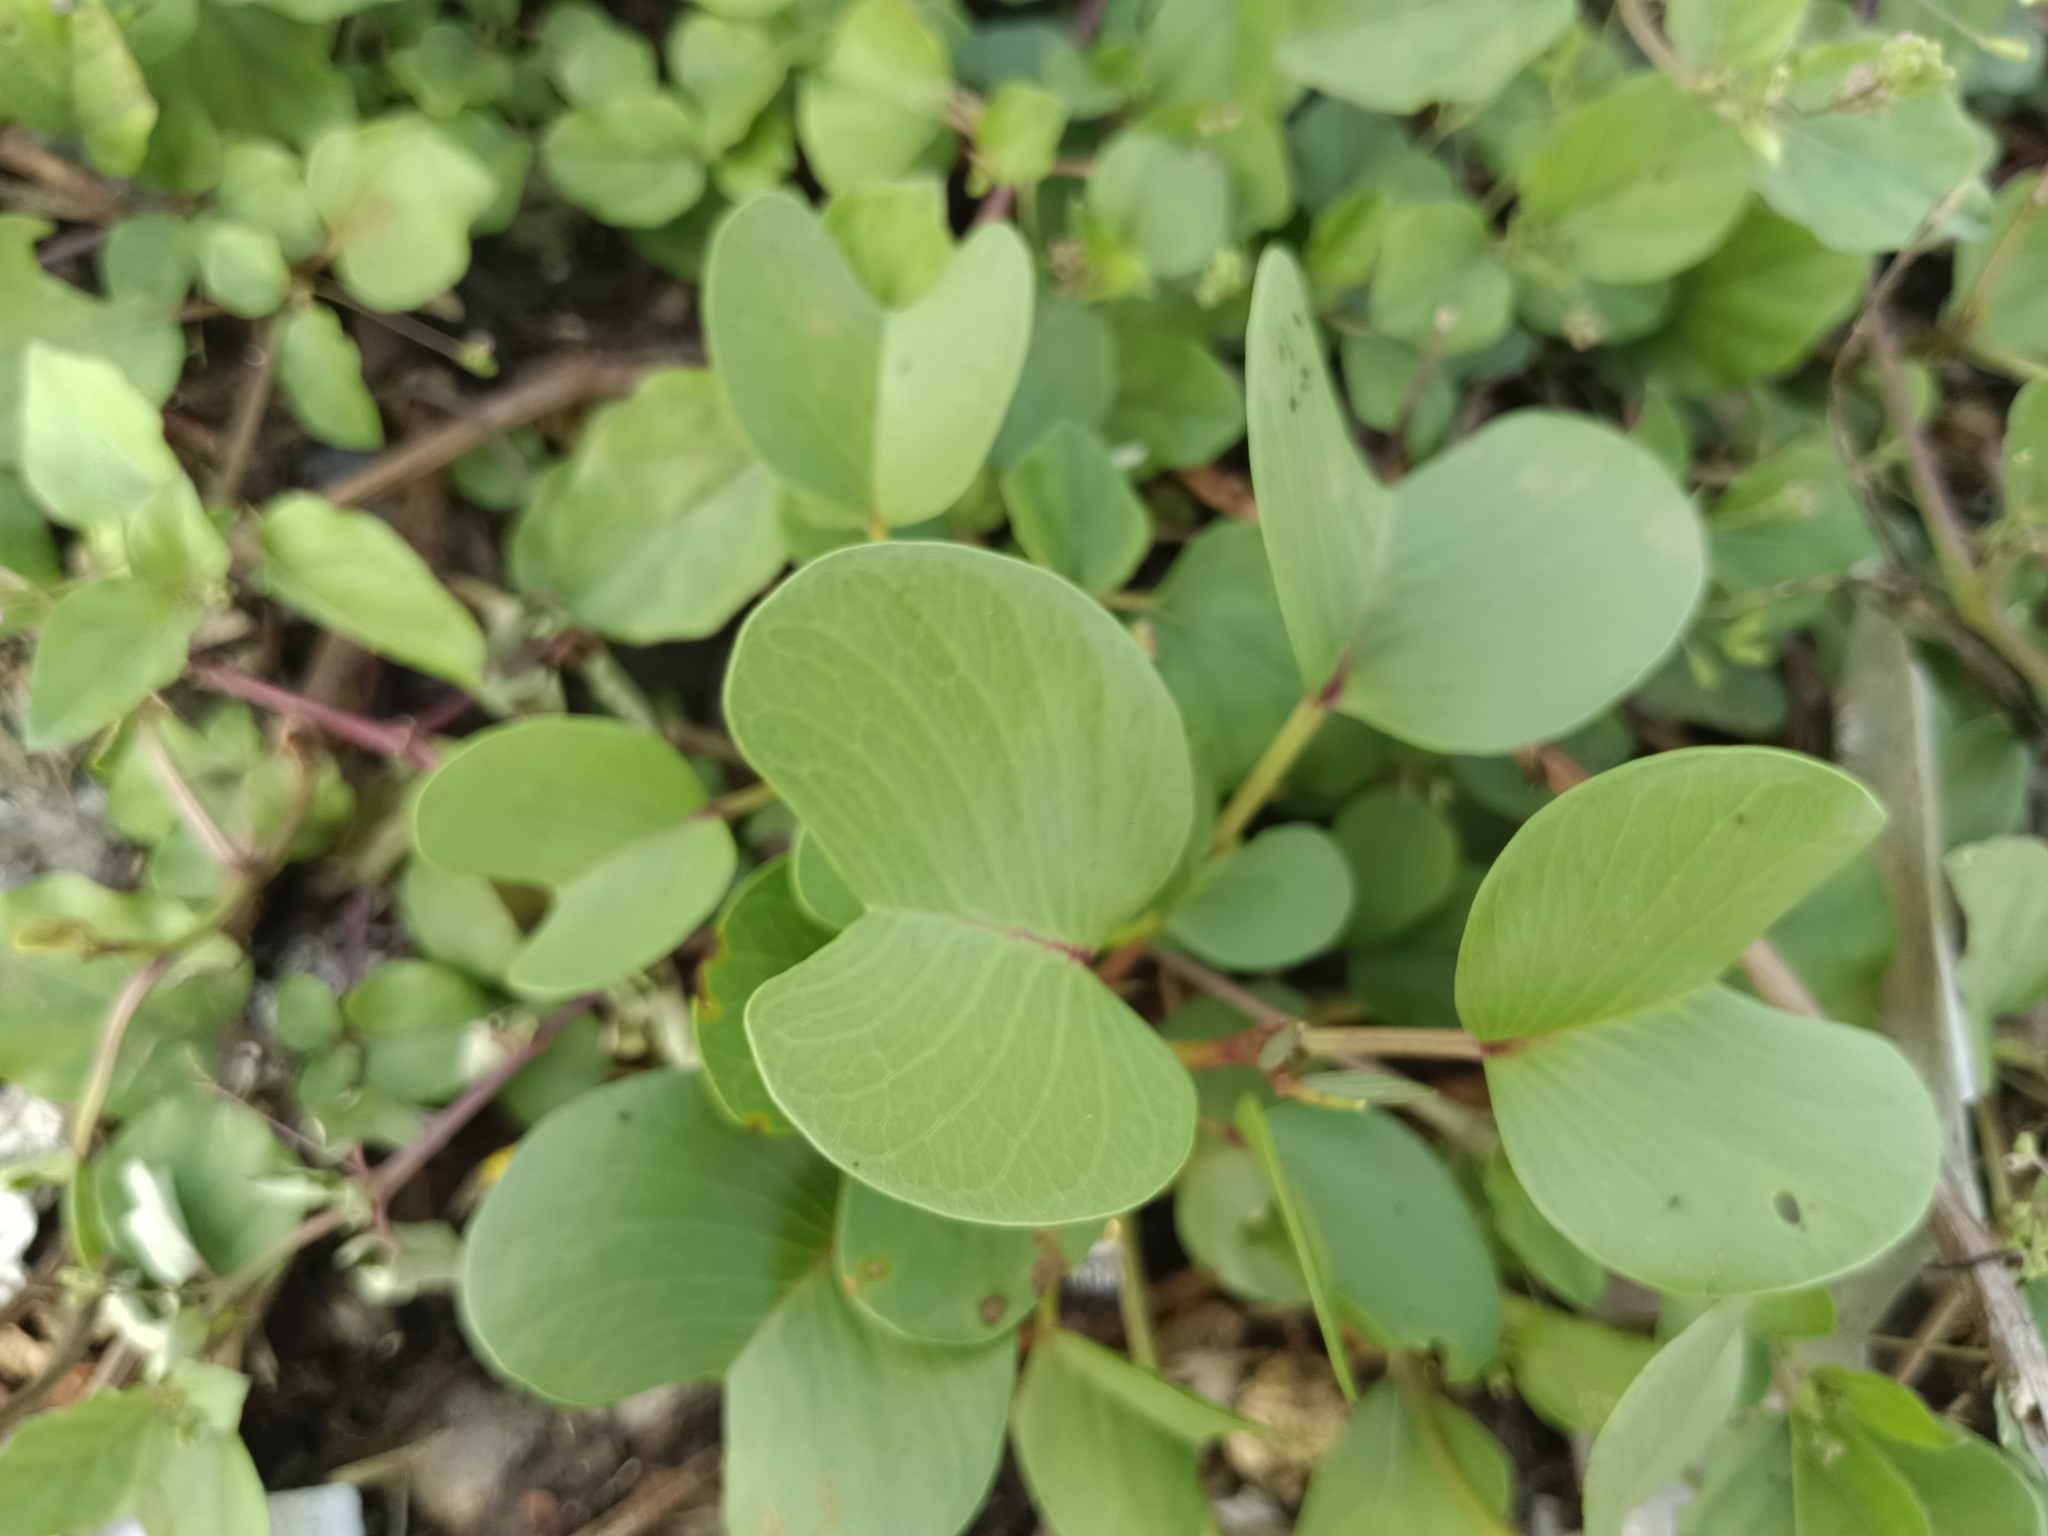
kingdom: Plantae
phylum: Tracheophyta
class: Magnoliopsida
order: Solanales
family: Convolvulaceae
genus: Ipomoea
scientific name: Ipomoea pes-caprae
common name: Beach morning glory
